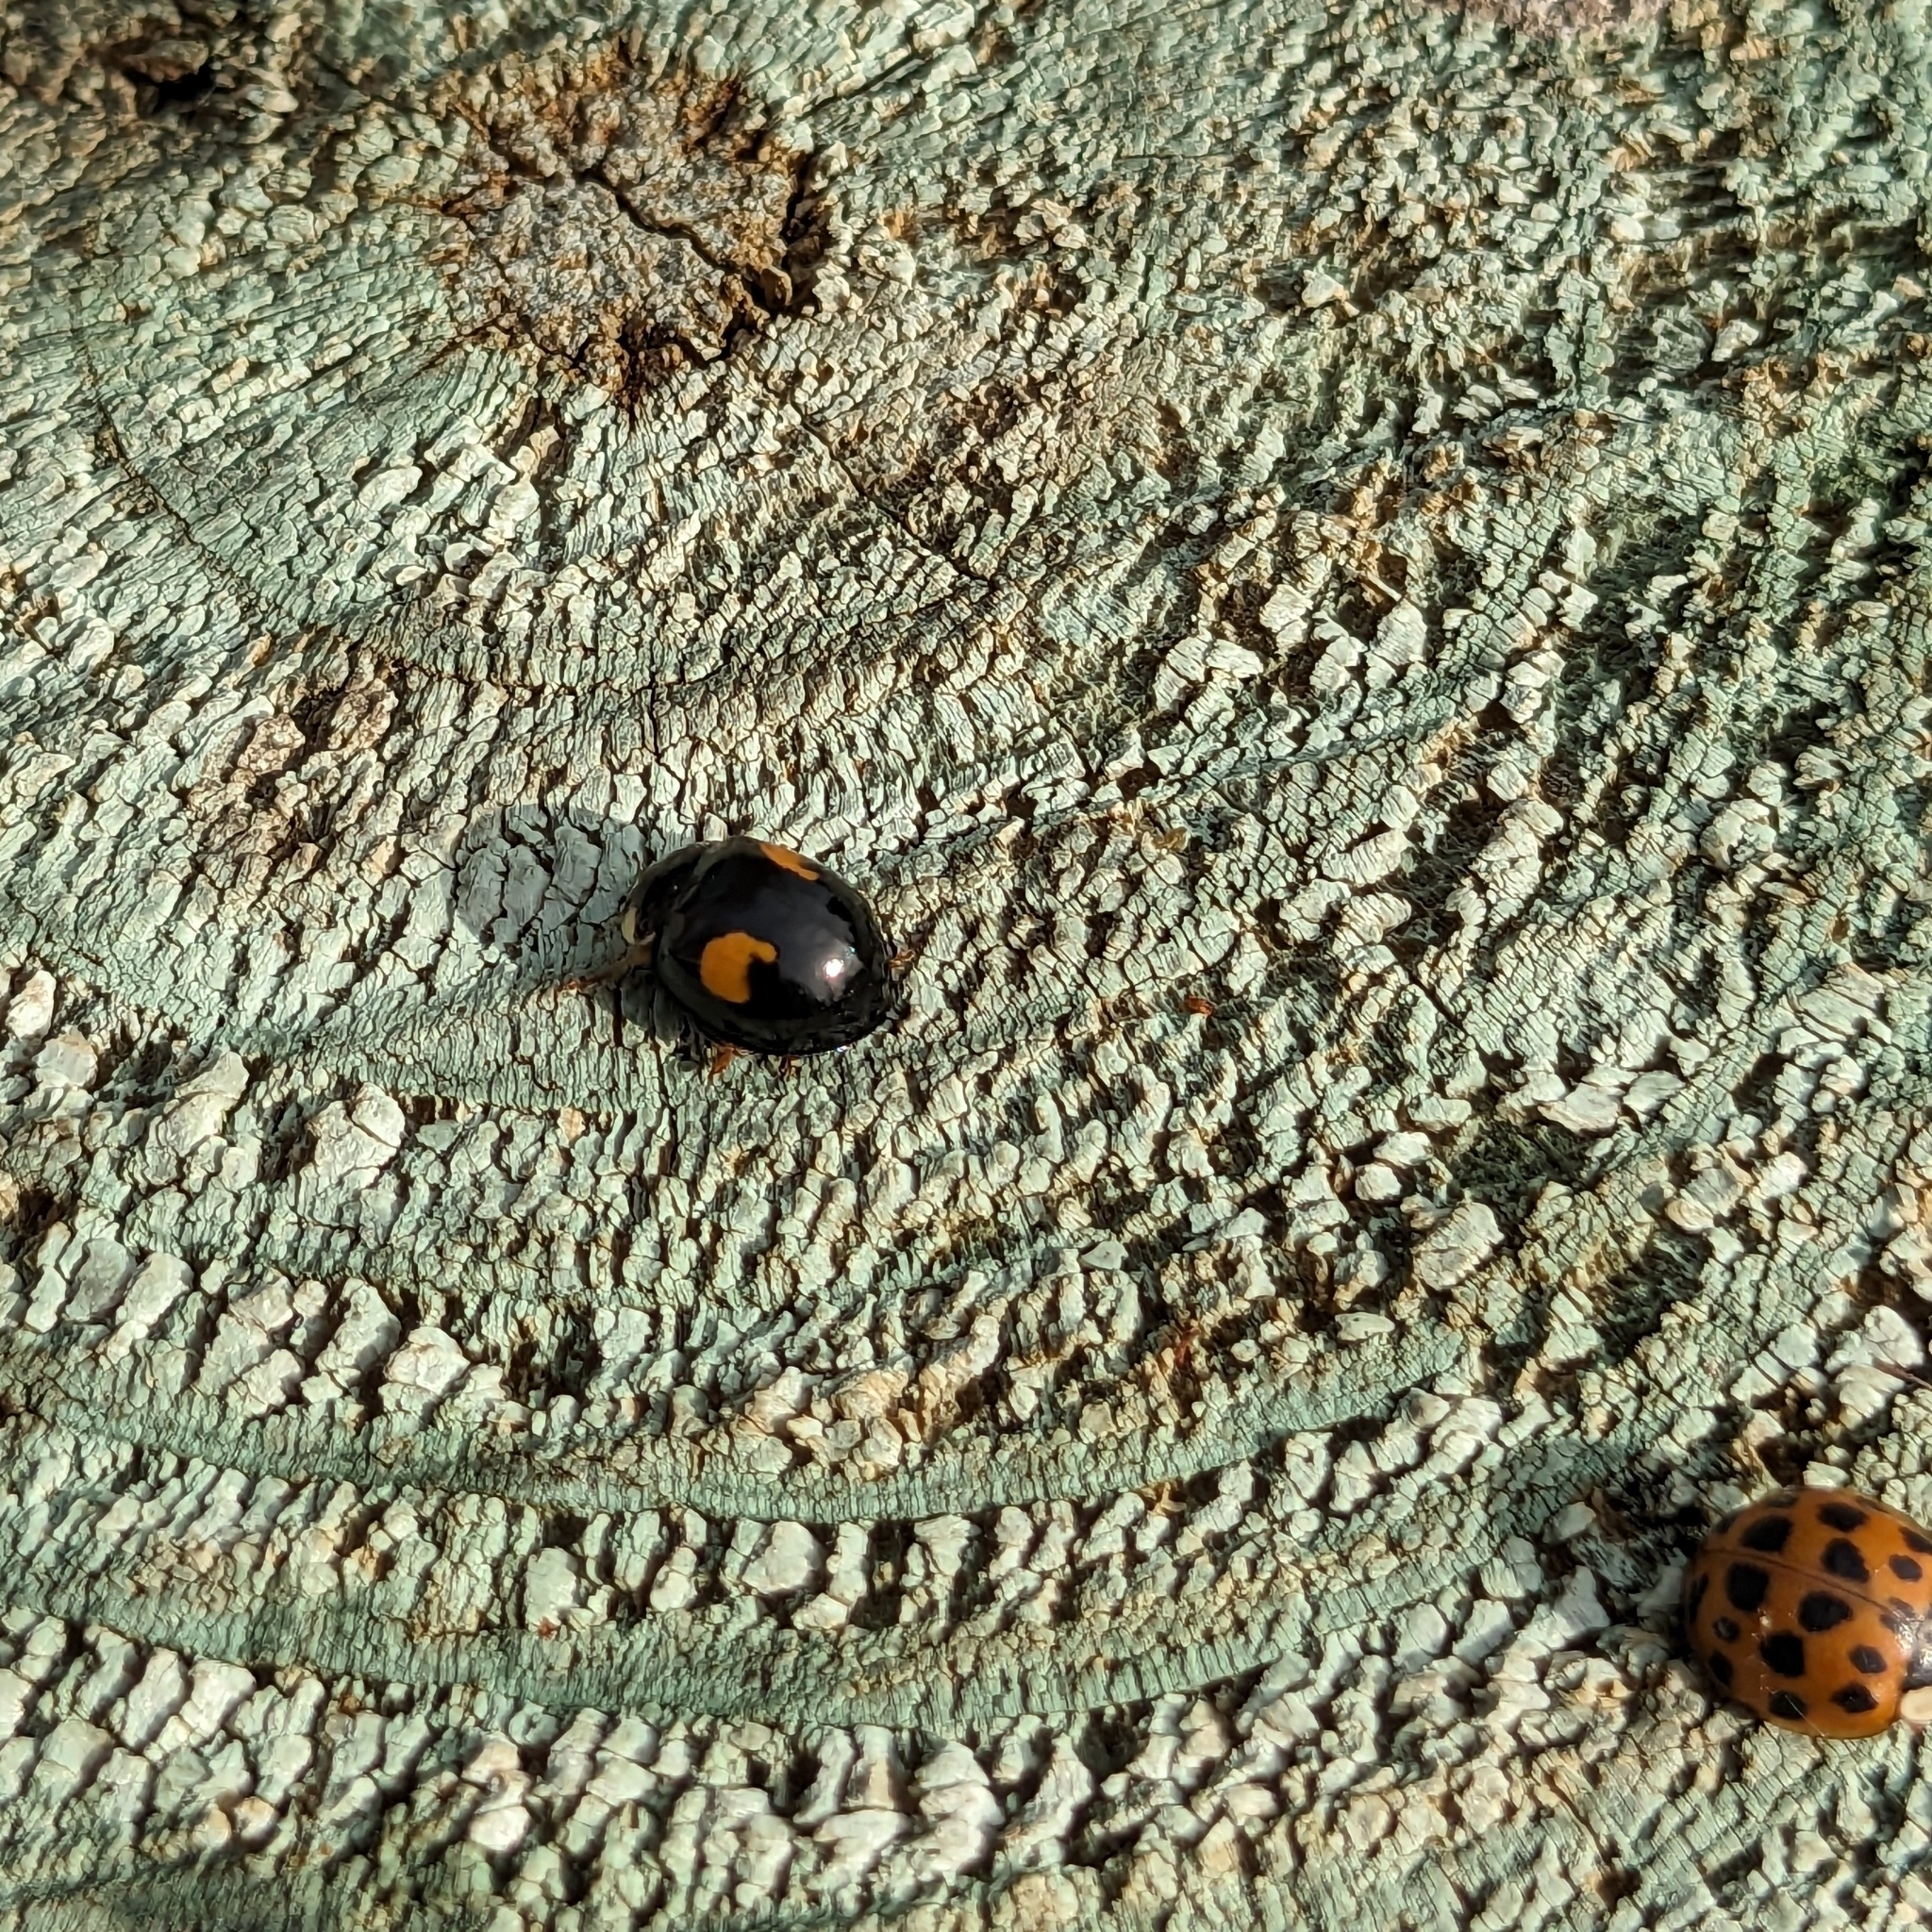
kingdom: Animalia
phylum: Arthropoda
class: Insecta
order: Coleoptera
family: Coccinellidae
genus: Harmonia
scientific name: Harmonia axyridis
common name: Harlequin ladybird
